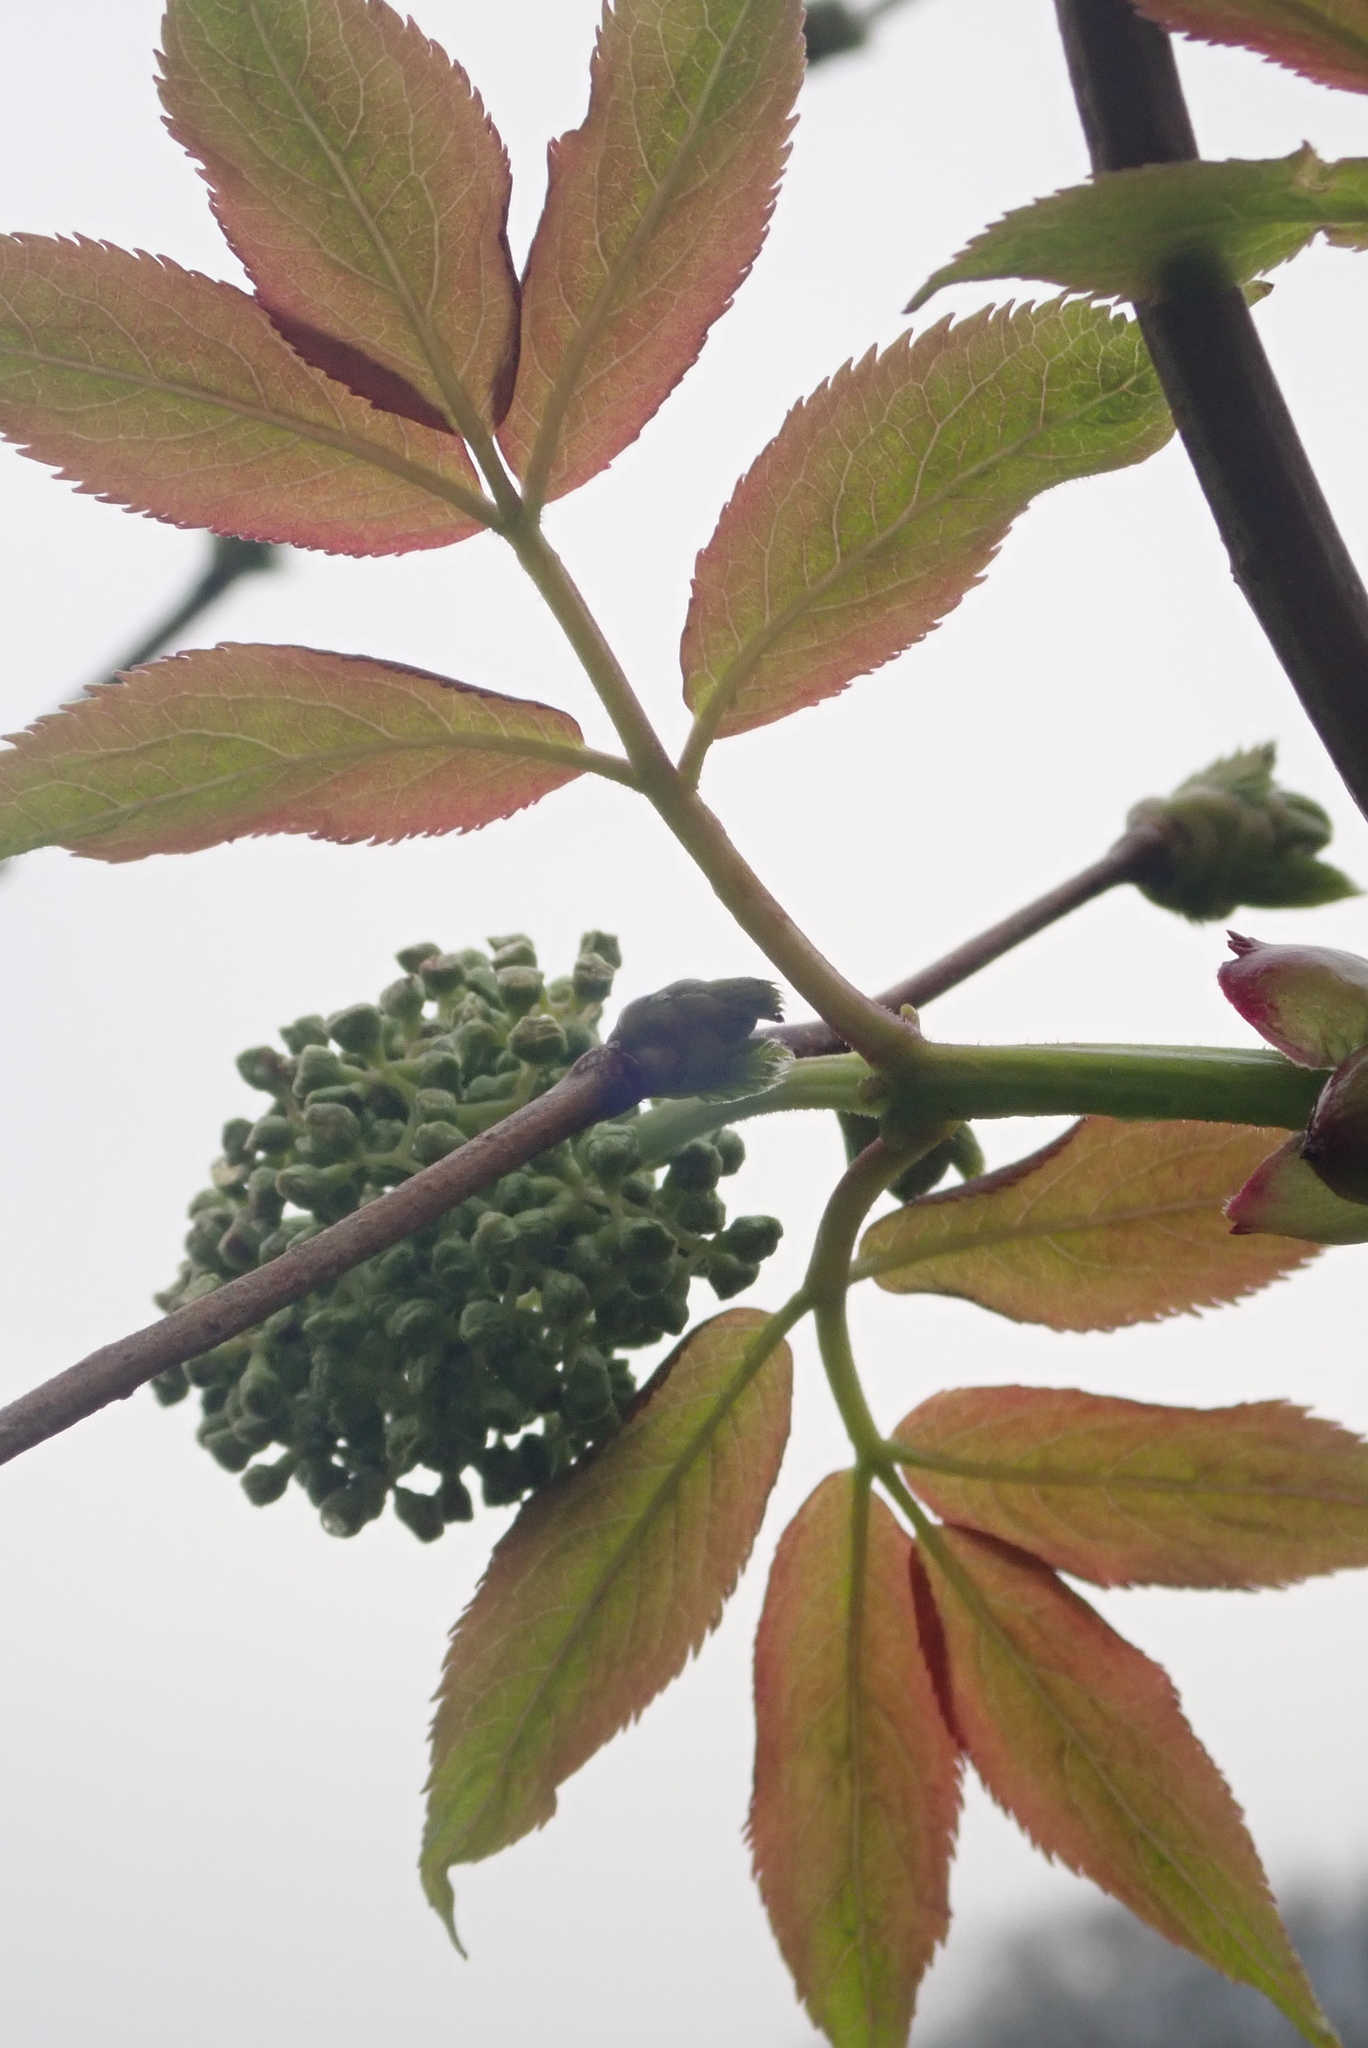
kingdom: Plantae
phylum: Tracheophyta
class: Magnoliopsida
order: Dipsacales
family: Viburnaceae
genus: Sambucus
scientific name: Sambucus racemosa
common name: Red-berried elder
